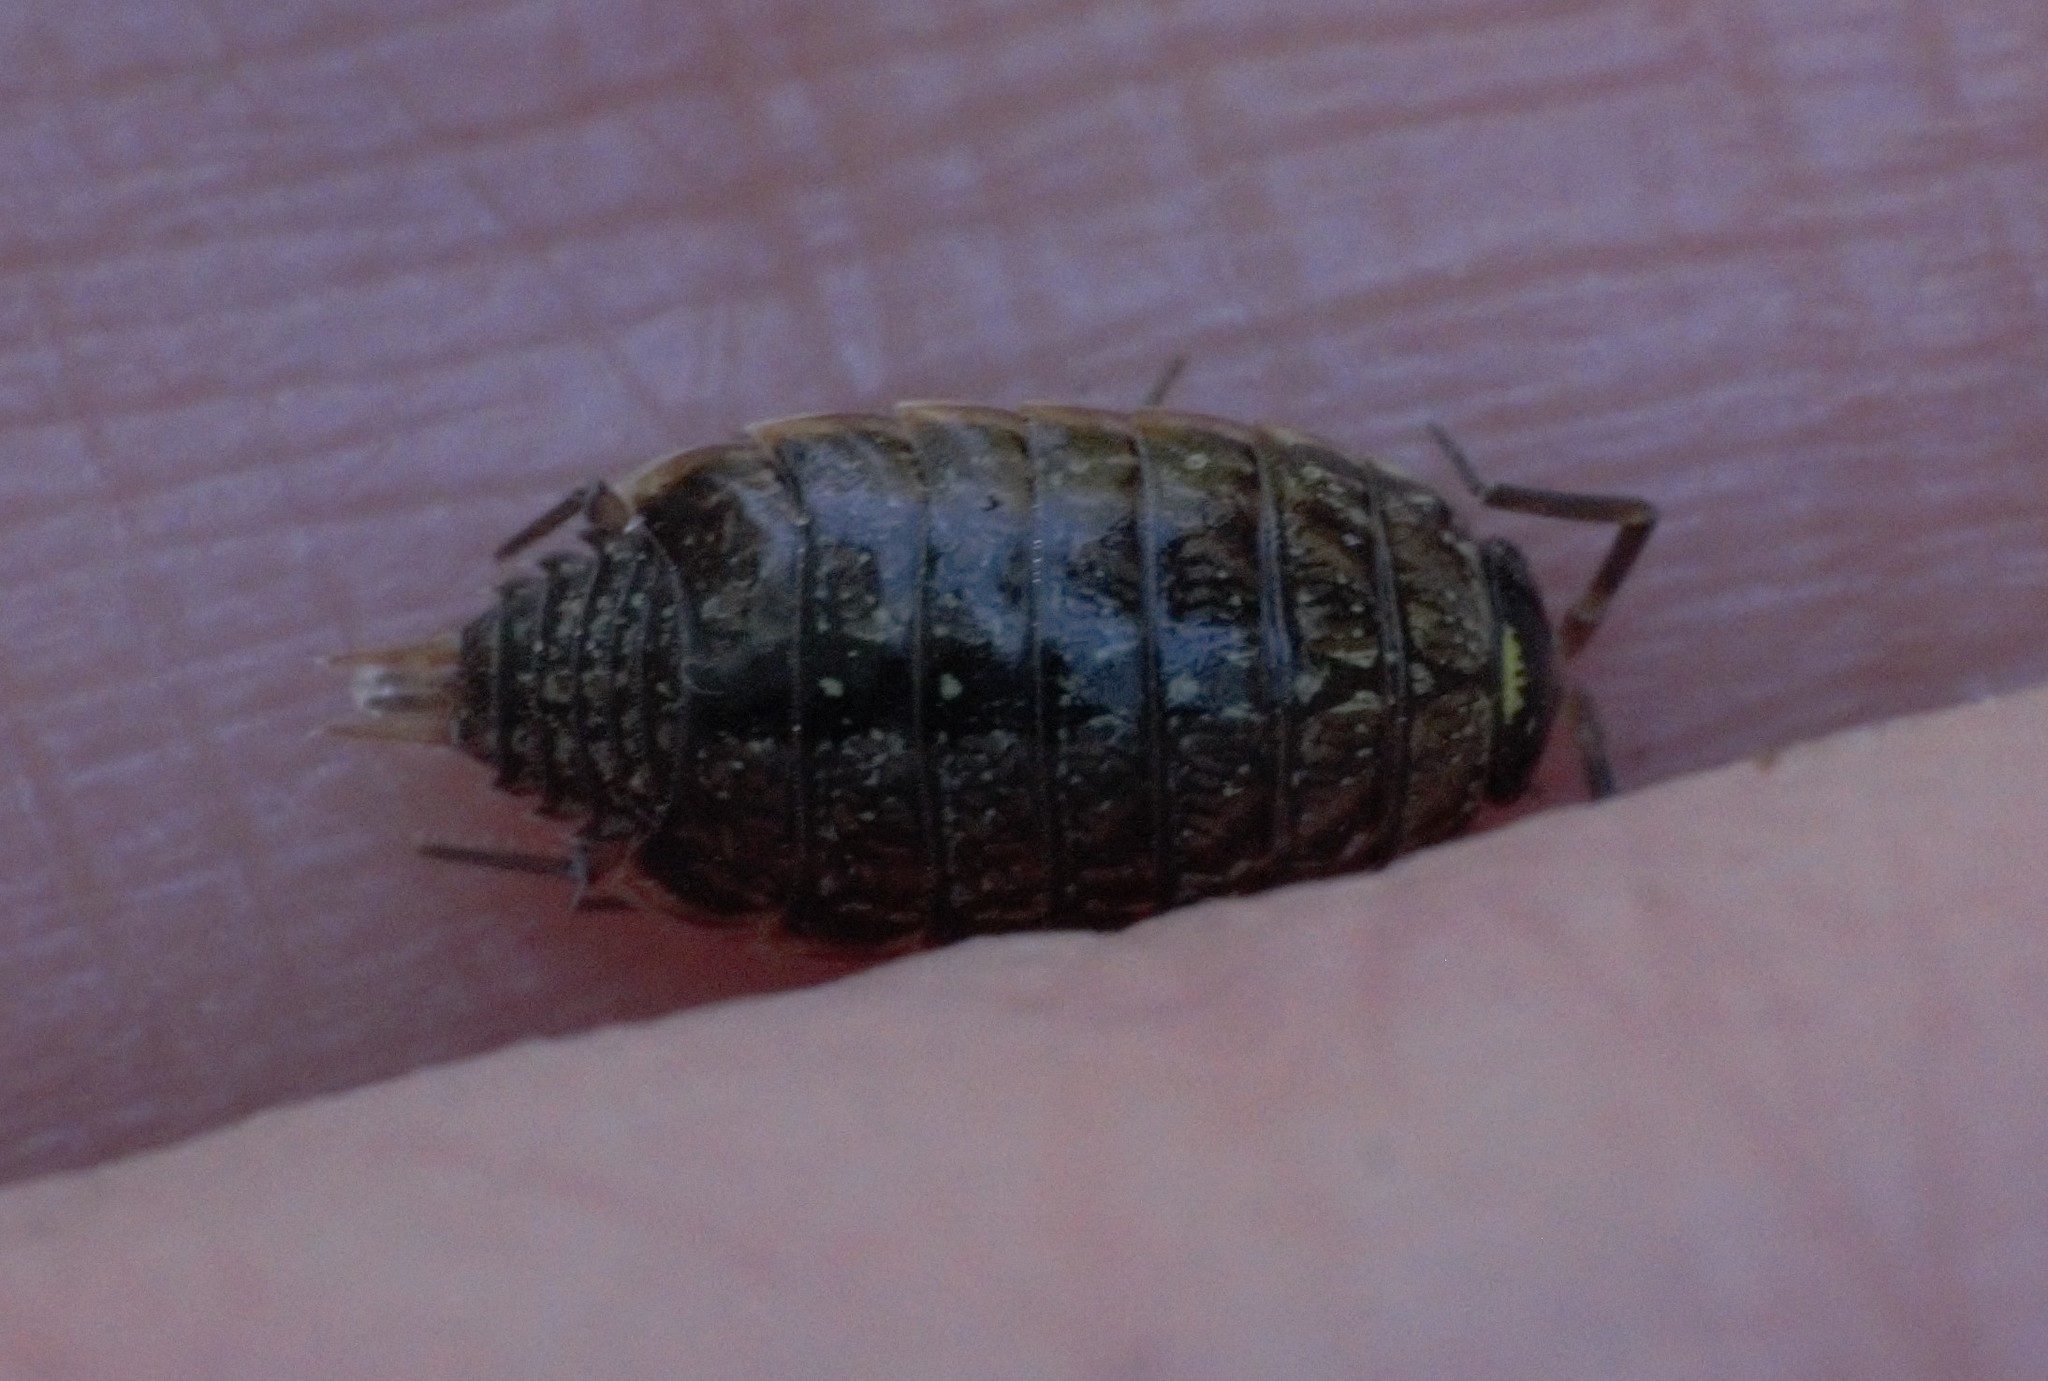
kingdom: Animalia
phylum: Arthropoda
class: Malacostraca
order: Isopoda
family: Philosciidae
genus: Philoscia
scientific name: Philoscia muscorum
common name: Common striped woodlouse
